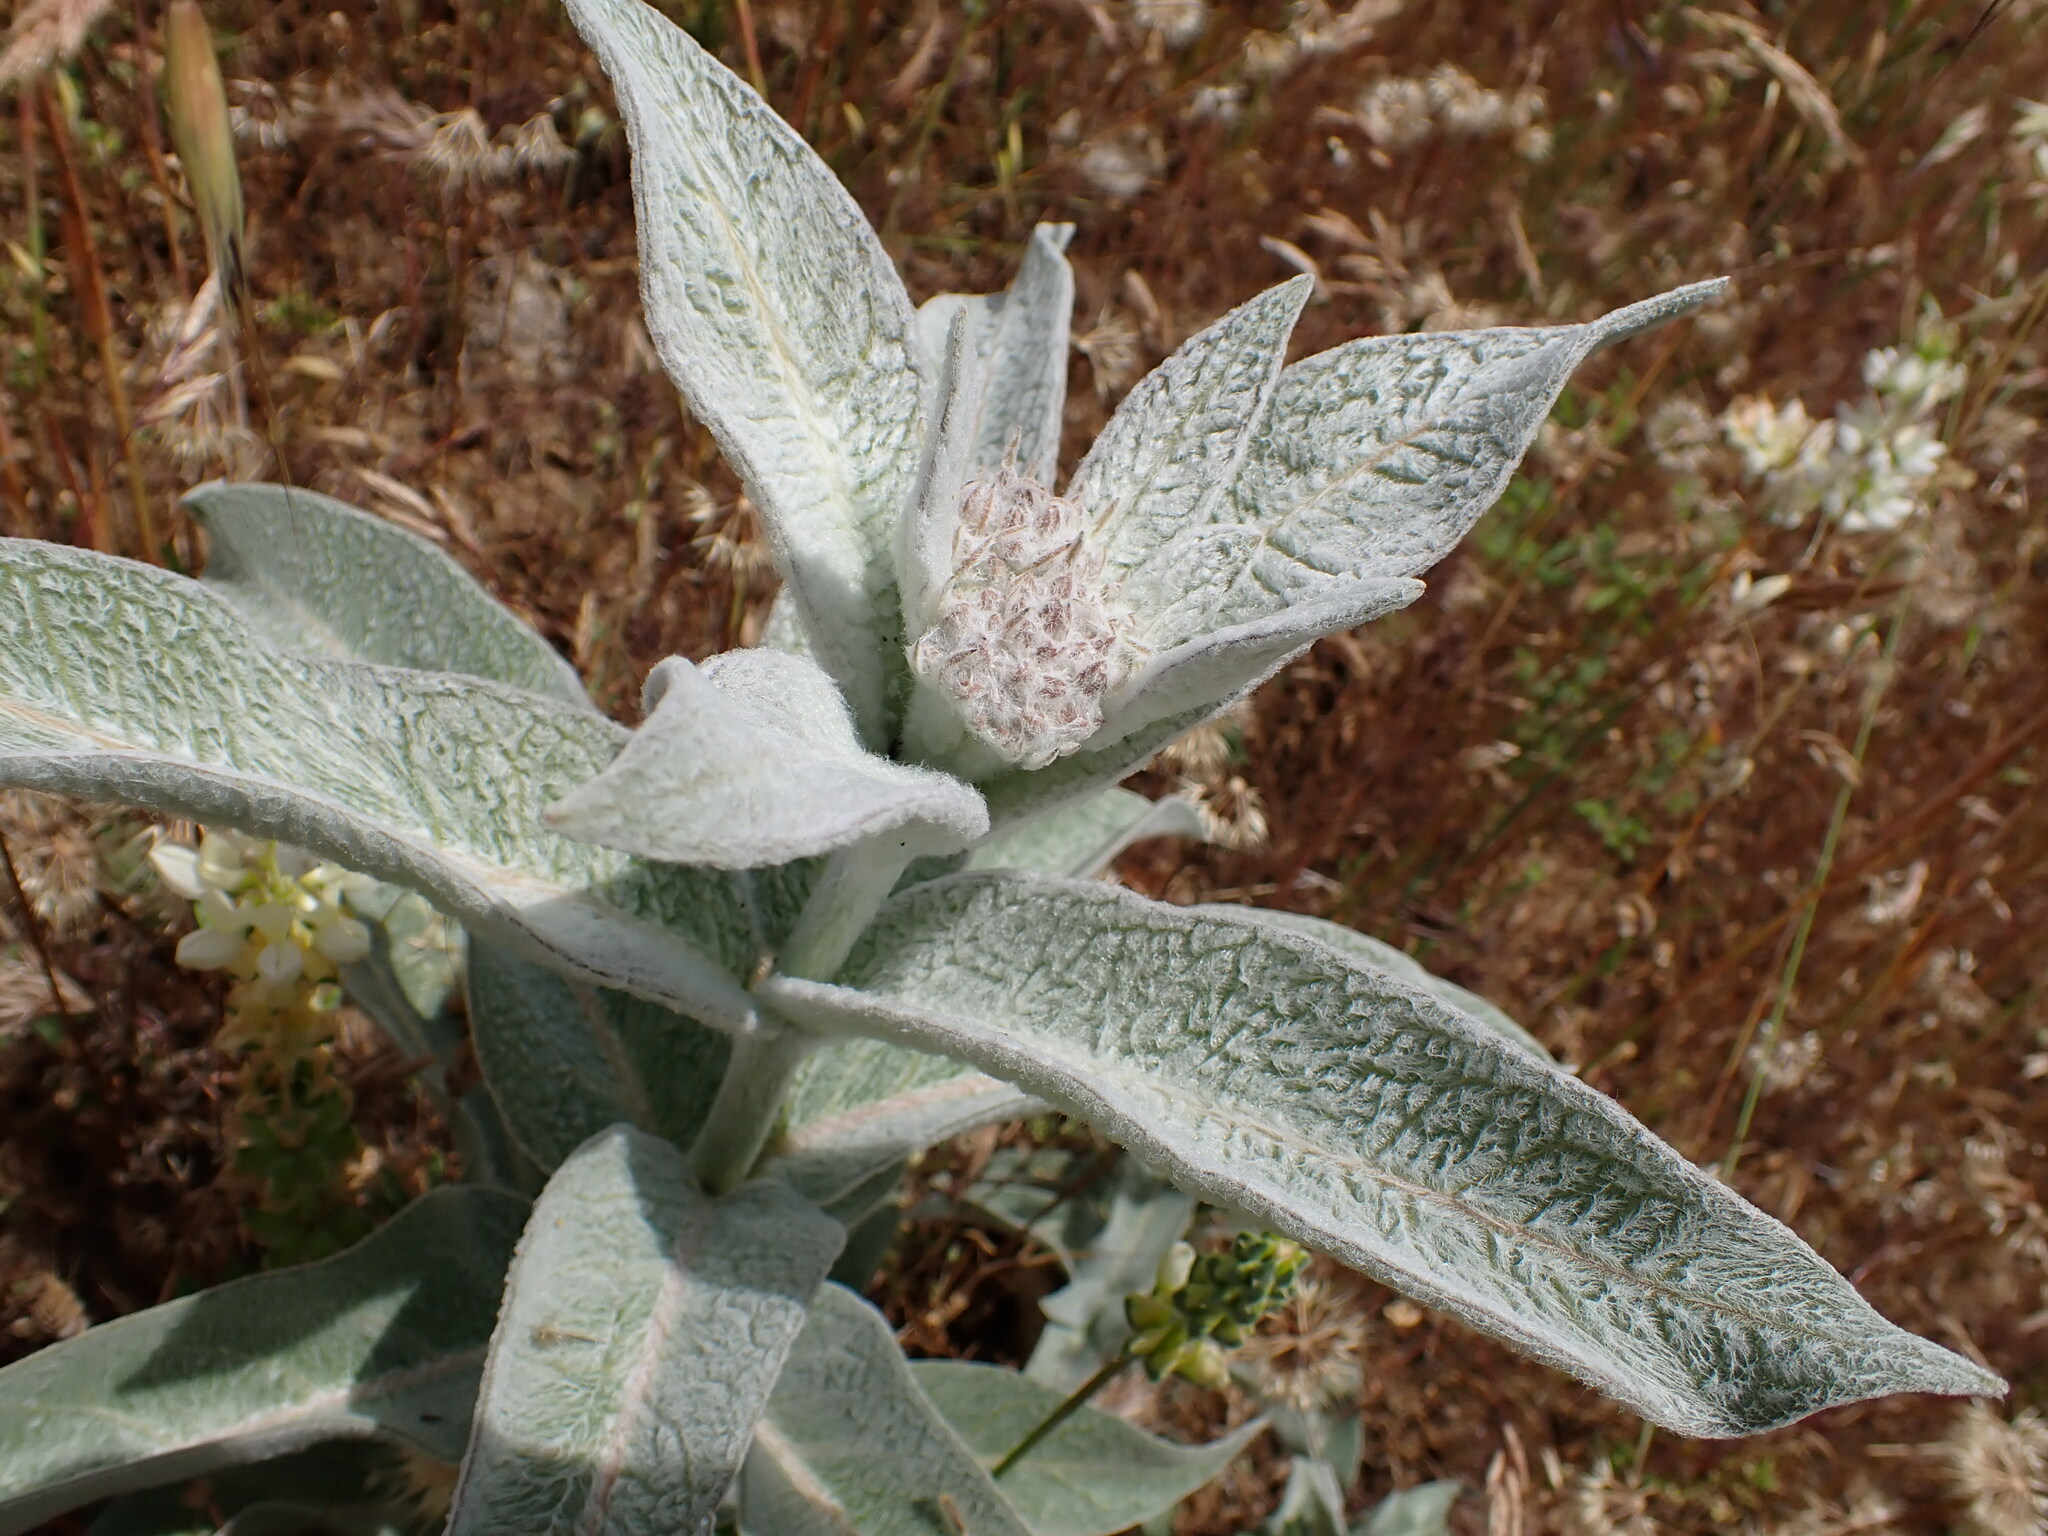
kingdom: Plantae
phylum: Tracheophyta
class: Magnoliopsida
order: Gentianales
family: Apocynaceae
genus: Asclepias
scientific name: Asclepias eriocarpa
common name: Indian milkweed
